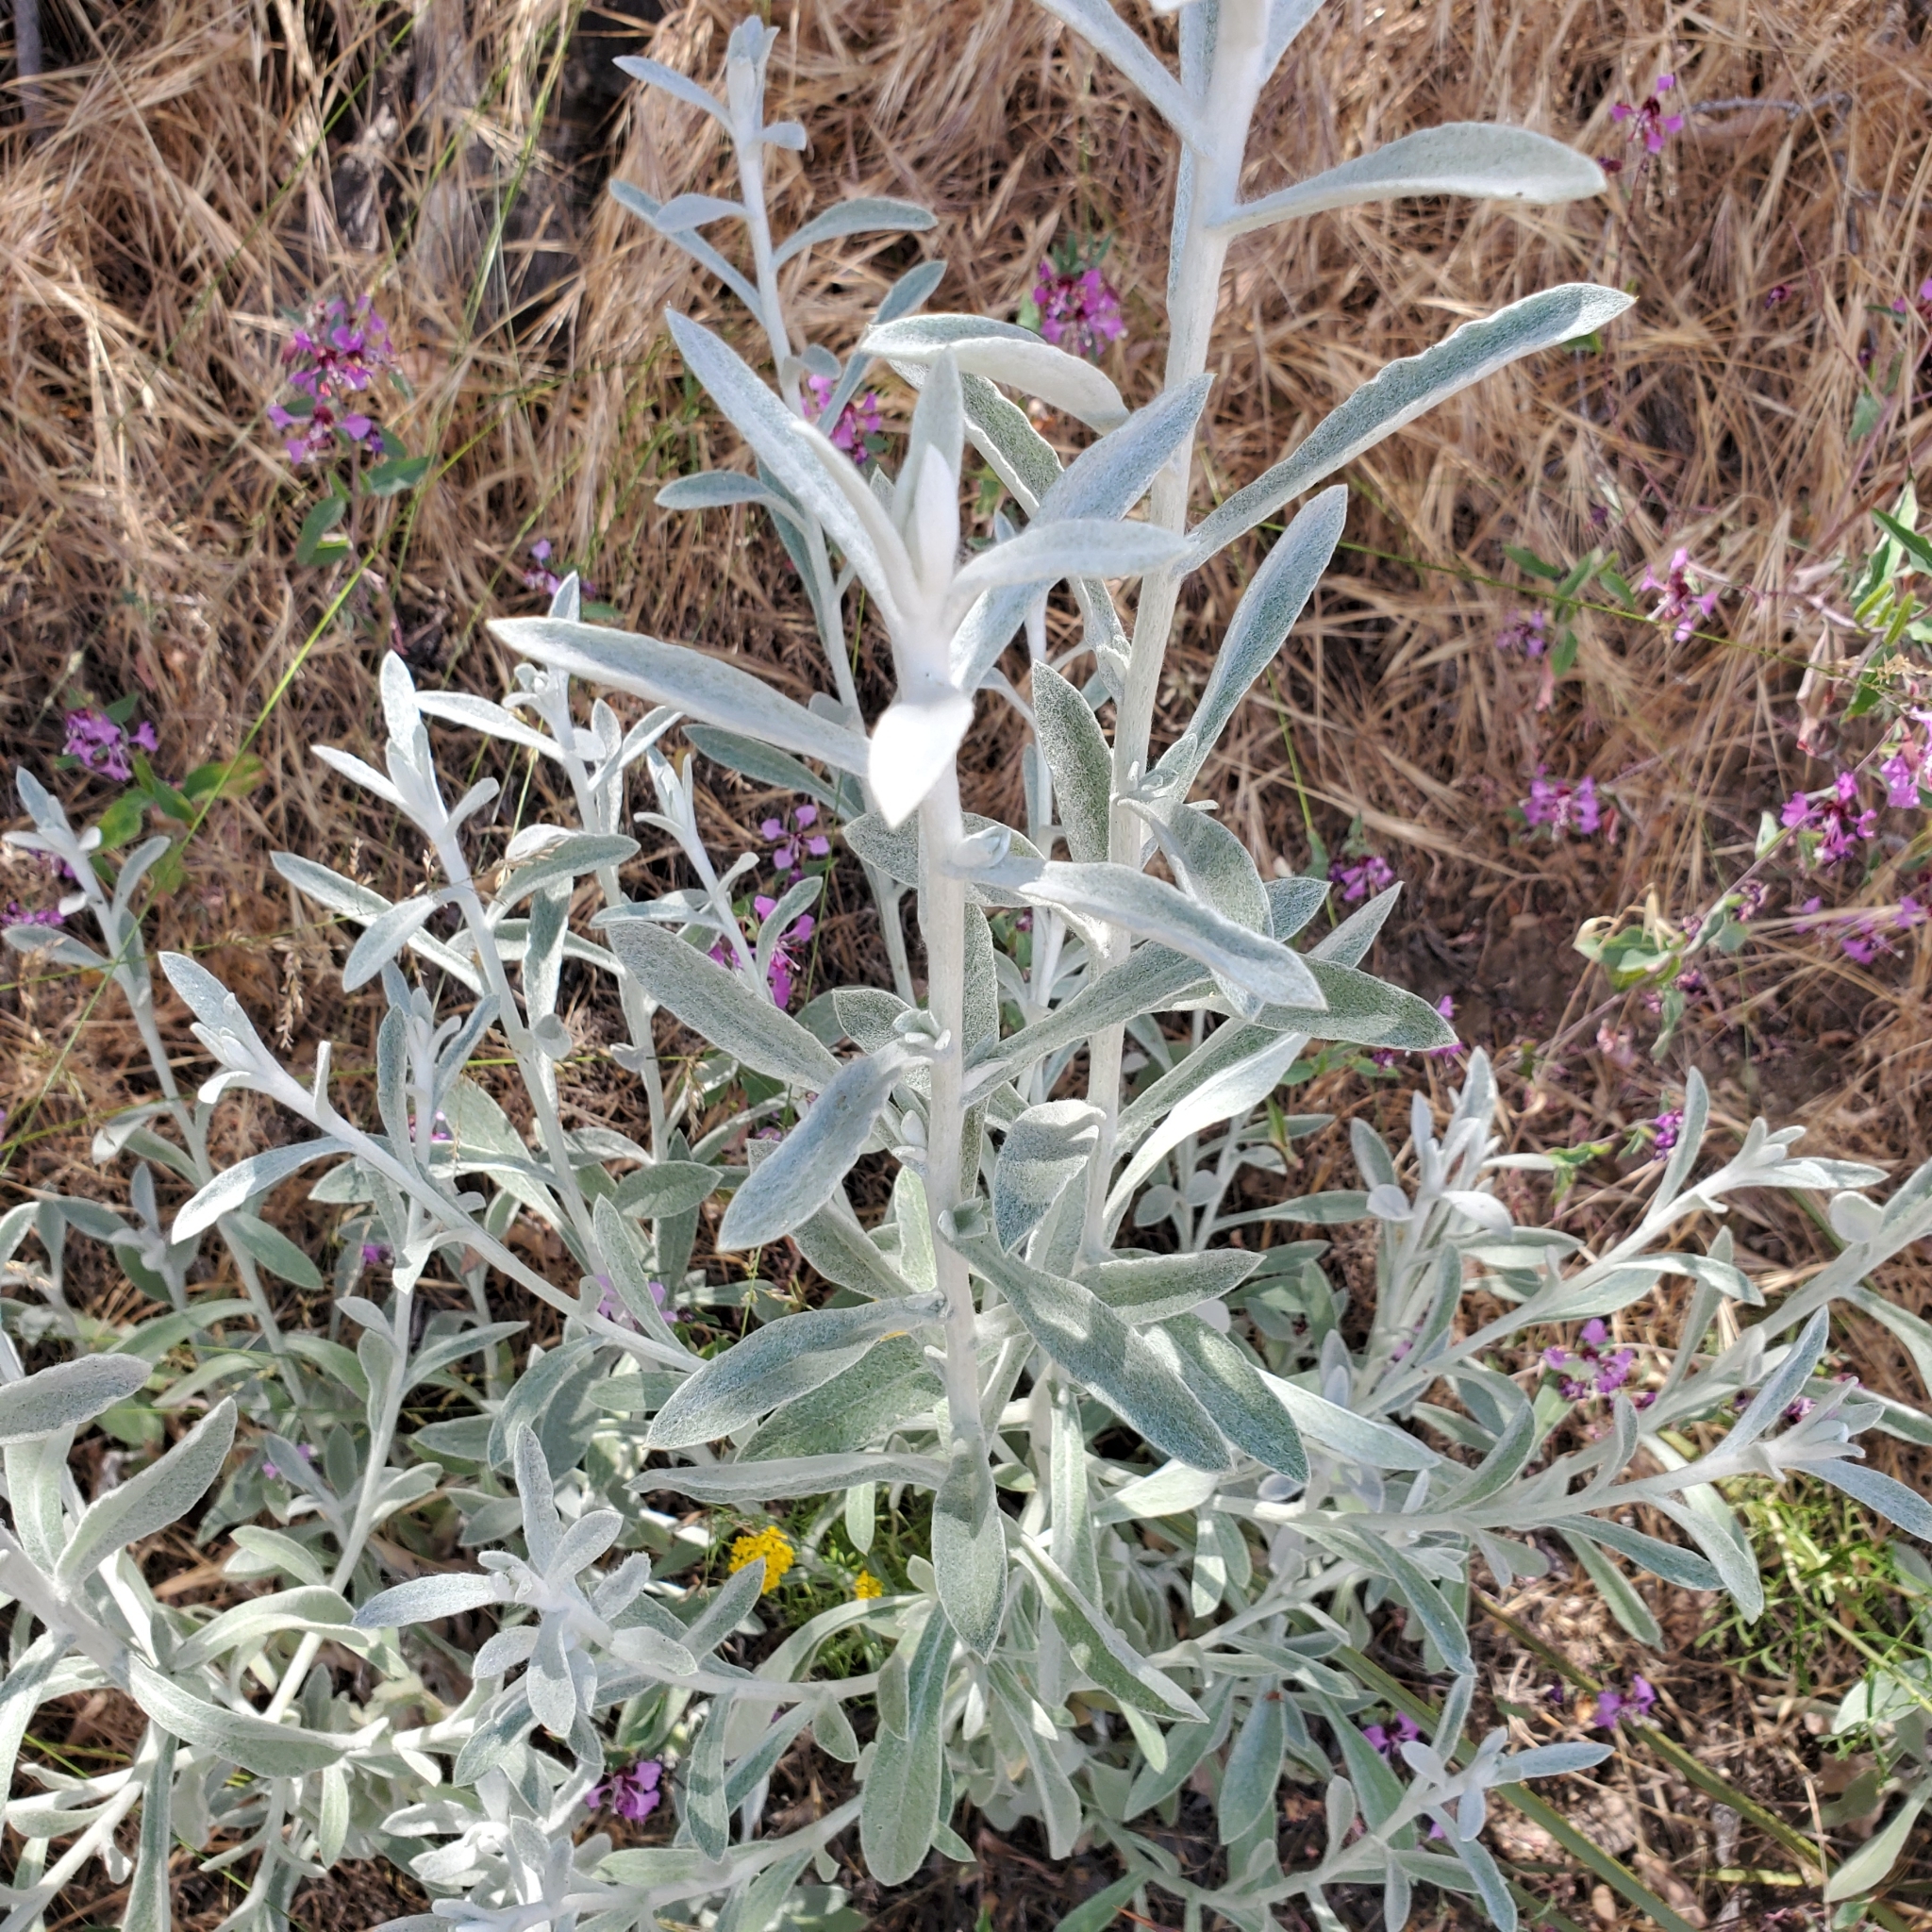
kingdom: Plantae
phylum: Tracheophyta
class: Magnoliopsida
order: Asterales
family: Asteraceae
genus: Pseudognaphalium
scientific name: Pseudognaphalium microcephalum
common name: San diego rabbit-tobacco
